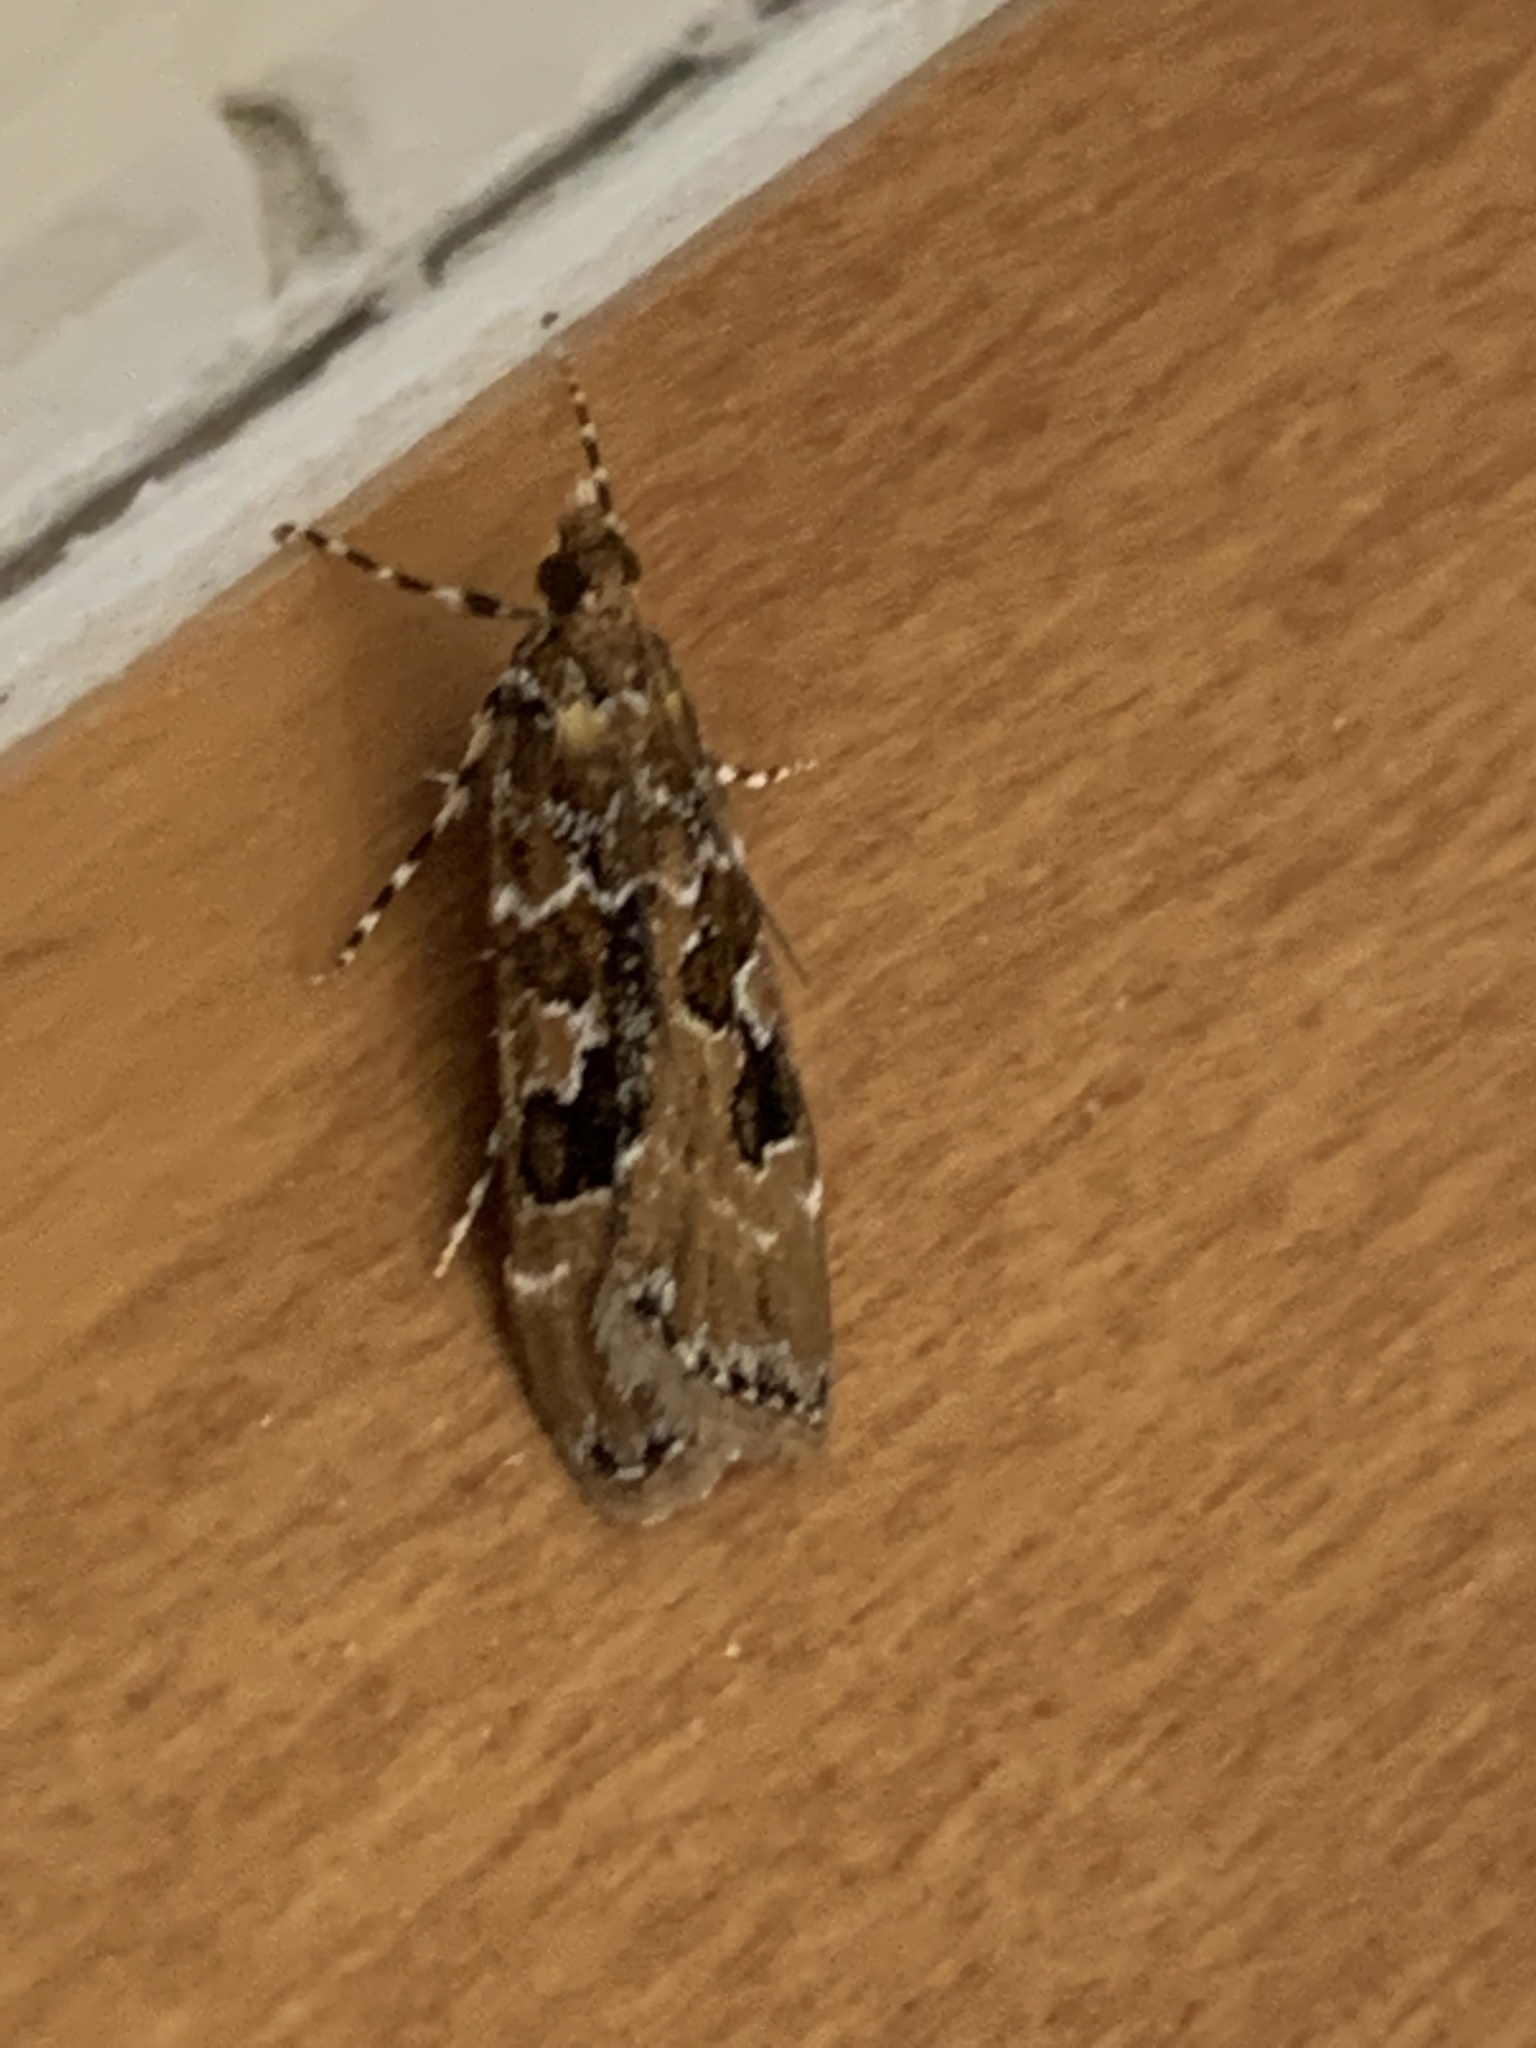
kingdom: Animalia
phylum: Arthropoda
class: Insecta
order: Lepidoptera
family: Crambidae
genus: Scoparia
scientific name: Scoparia ustimacula
